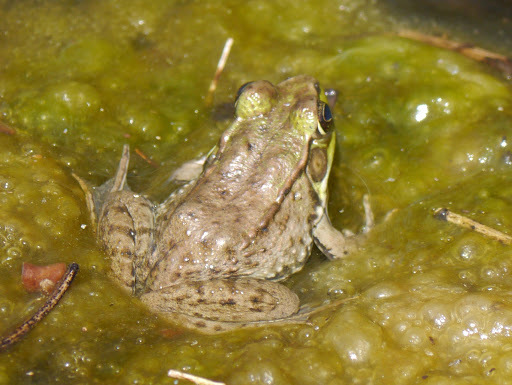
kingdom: Animalia
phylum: Chordata
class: Amphibia
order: Anura
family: Ranidae
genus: Lithobates
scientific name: Lithobates clamitans
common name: Green frog
